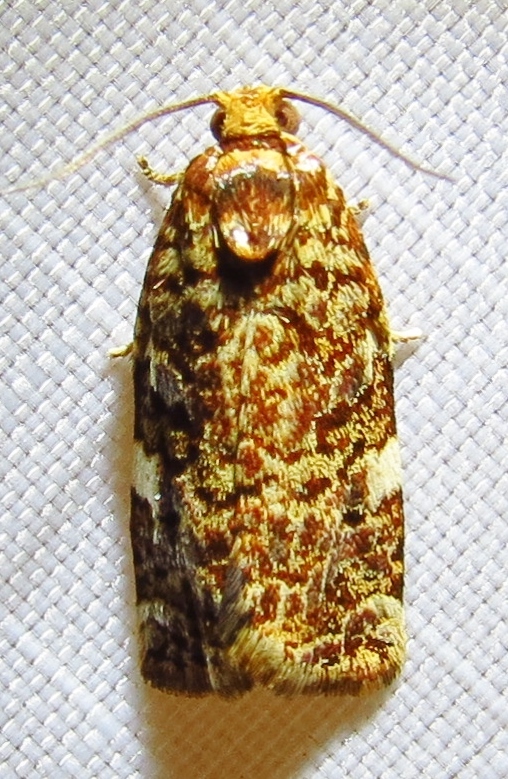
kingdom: Animalia
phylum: Arthropoda
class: Insecta
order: Lepidoptera
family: Tortricidae
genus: Archips
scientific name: Archips argyrospila
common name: Fruit-tree leafroller moth
